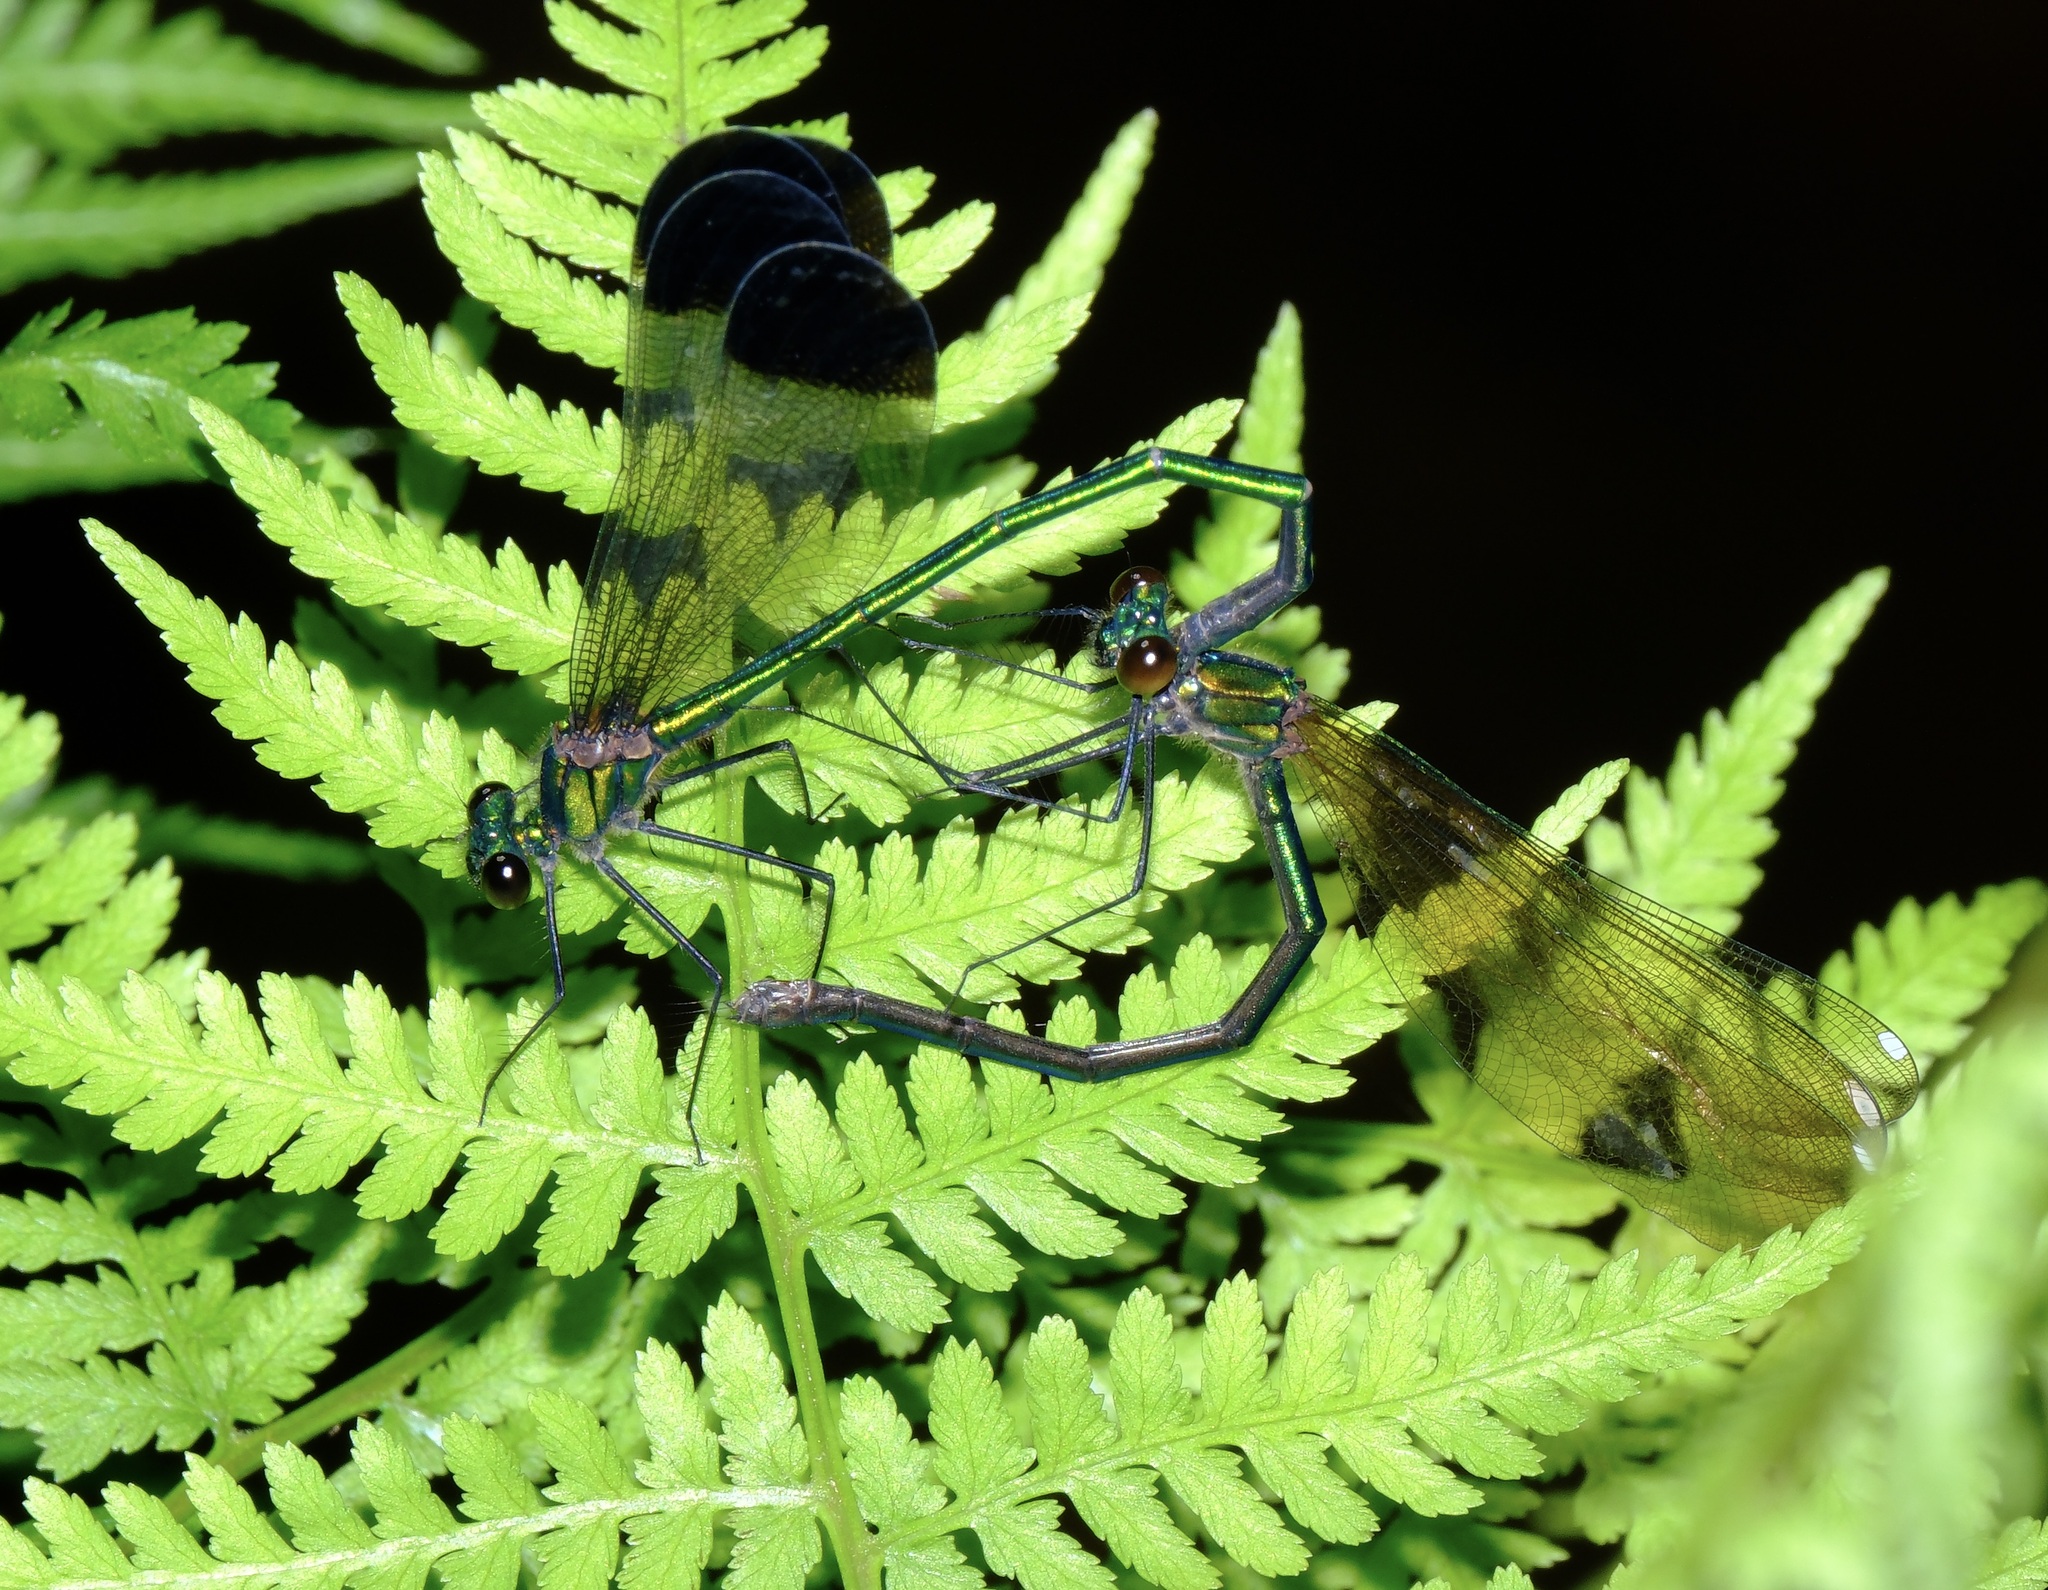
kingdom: Animalia
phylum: Arthropoda
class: Insecta
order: Odonata
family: Calopterygidae
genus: Calopteryx
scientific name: Calopteryx dimidiata
